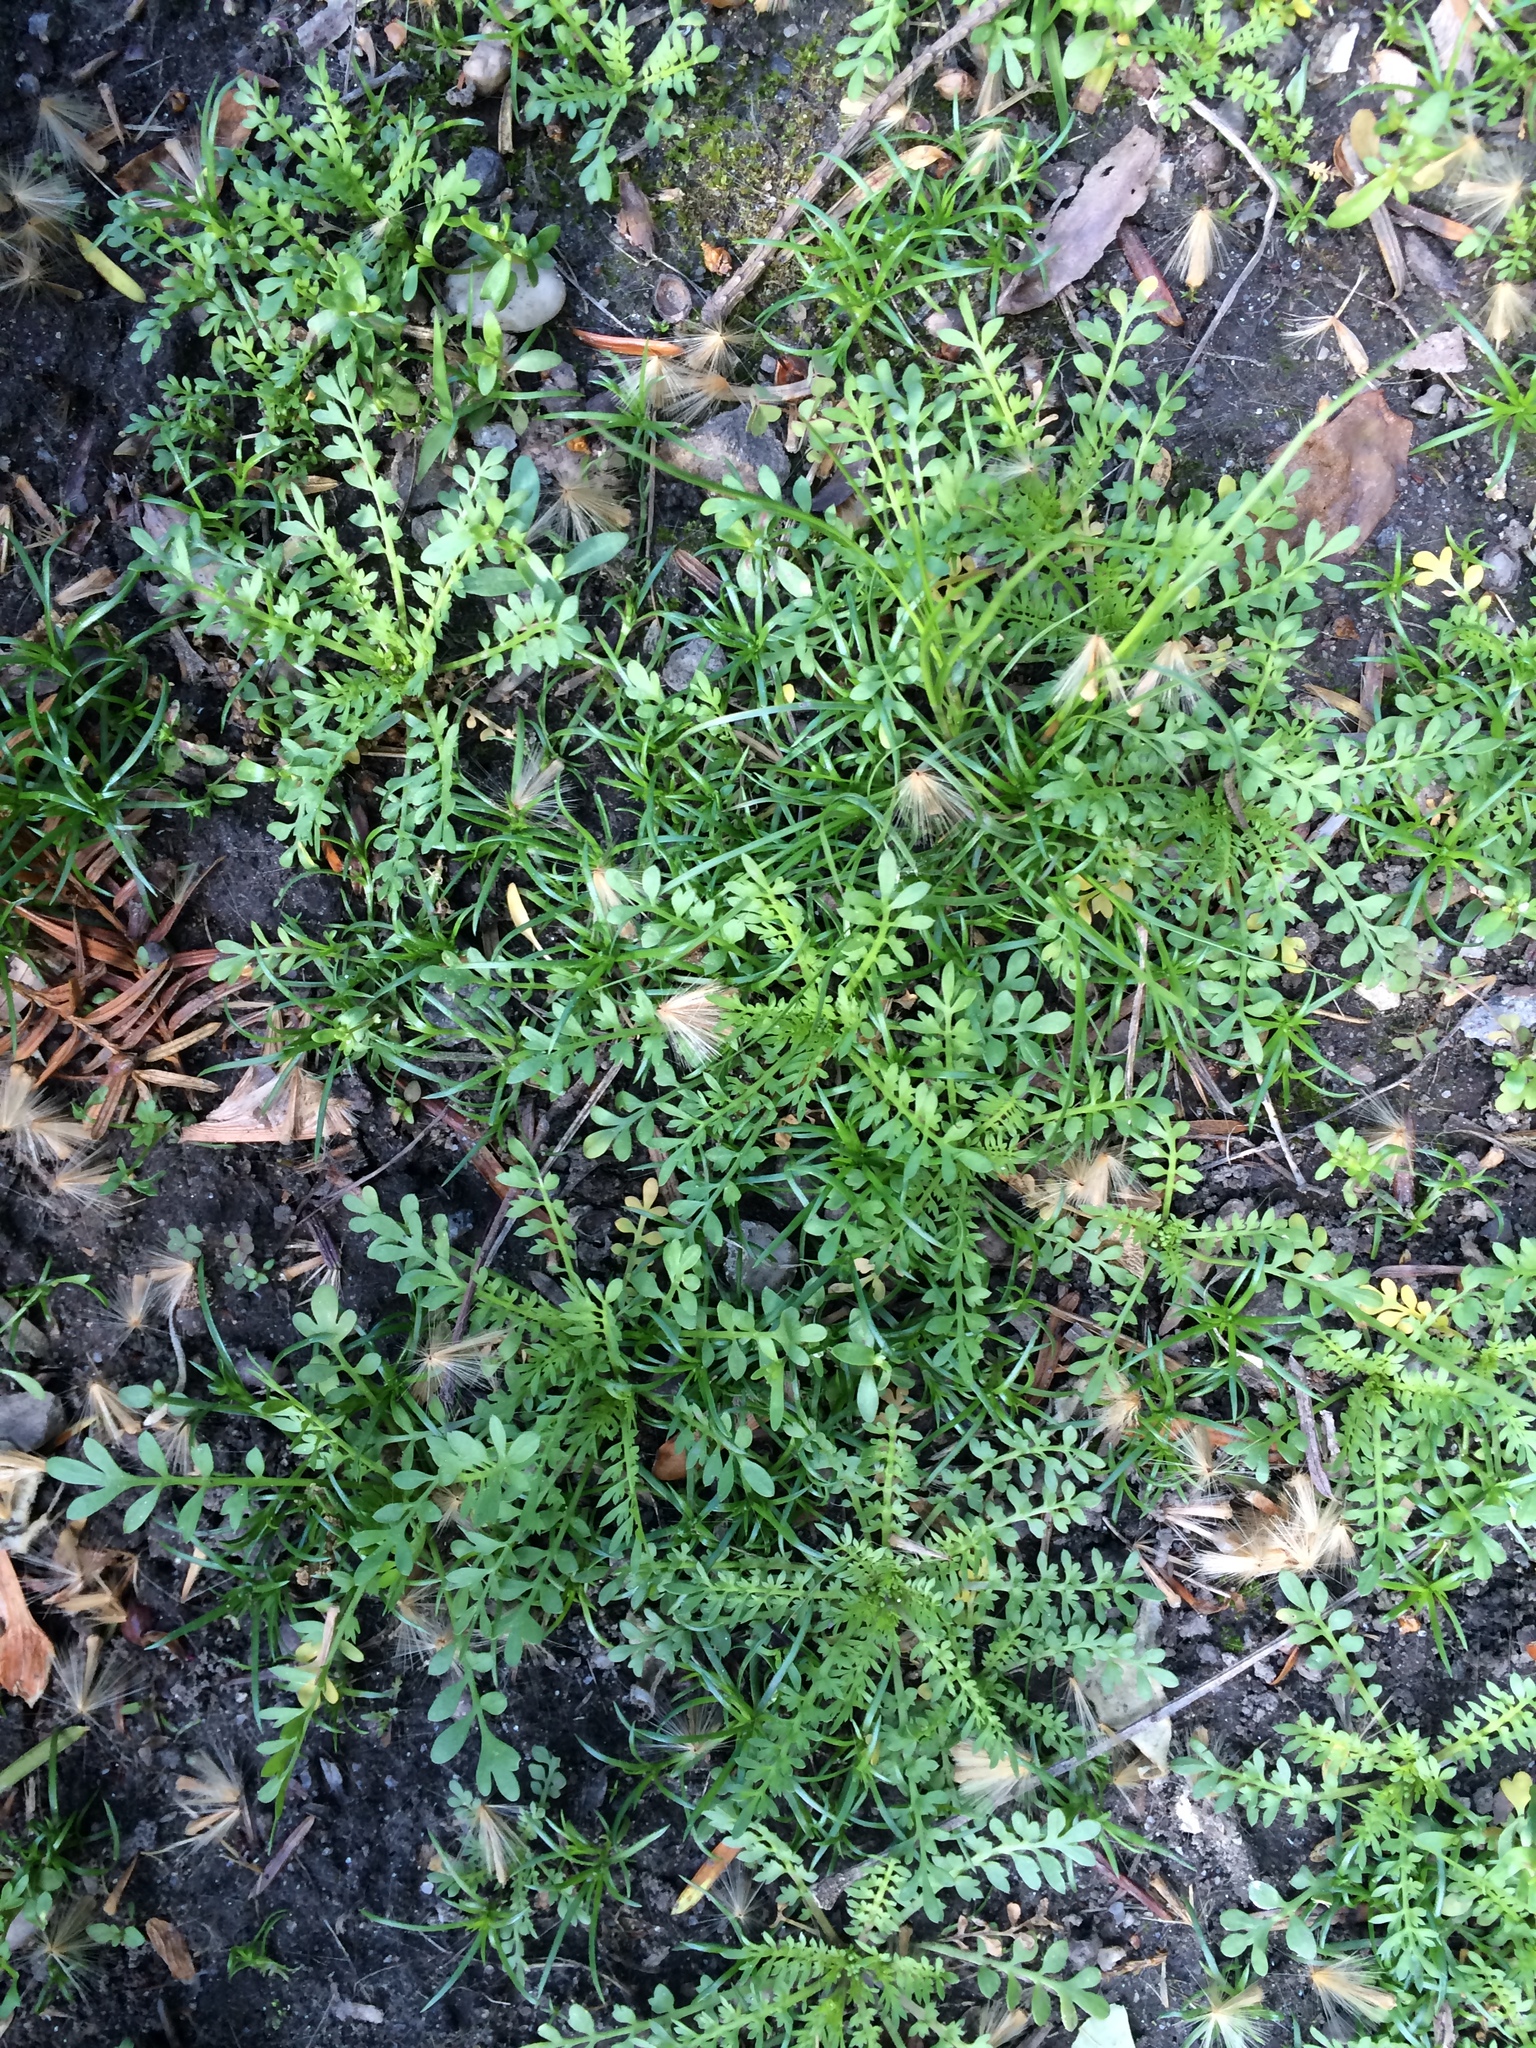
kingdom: Plantae
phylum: Tracheophyta
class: Magnoliopsida
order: Brassicales
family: Brassicaceae
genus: Lepidium
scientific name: Lepidium didymum
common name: Lesser swinecress
